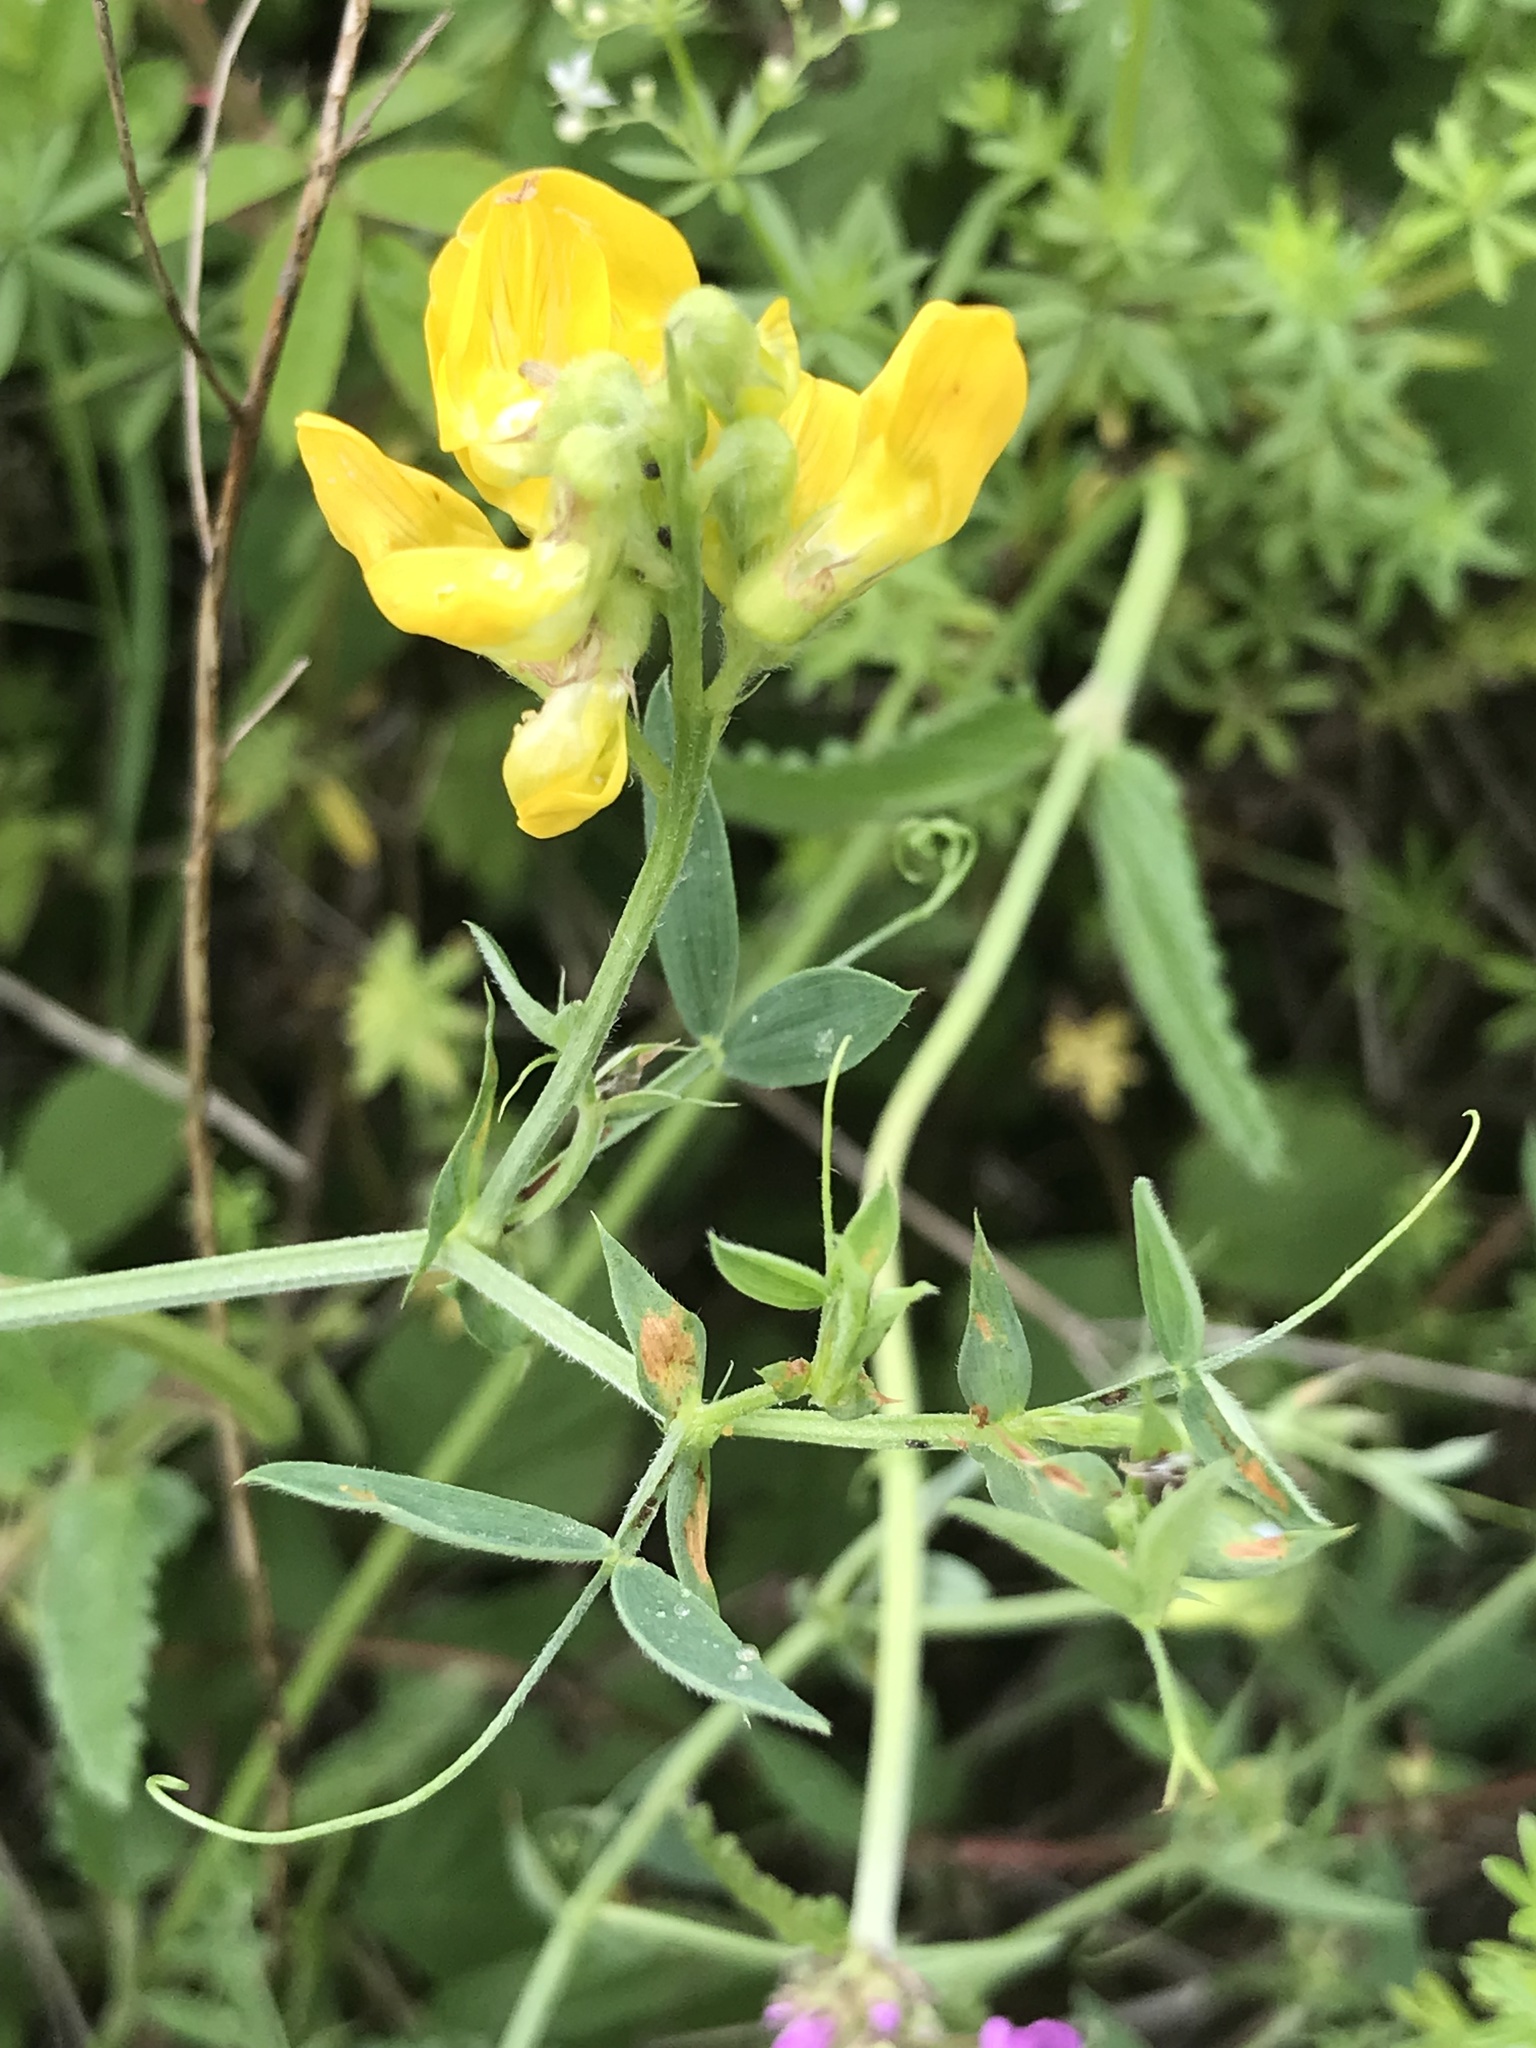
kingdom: Plantae
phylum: Tracheophyta
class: Magnoliopsida
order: Fabales
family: Fabaceae
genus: Lathyrus
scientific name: Lathyrus pratensis
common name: Meadow vetchling
